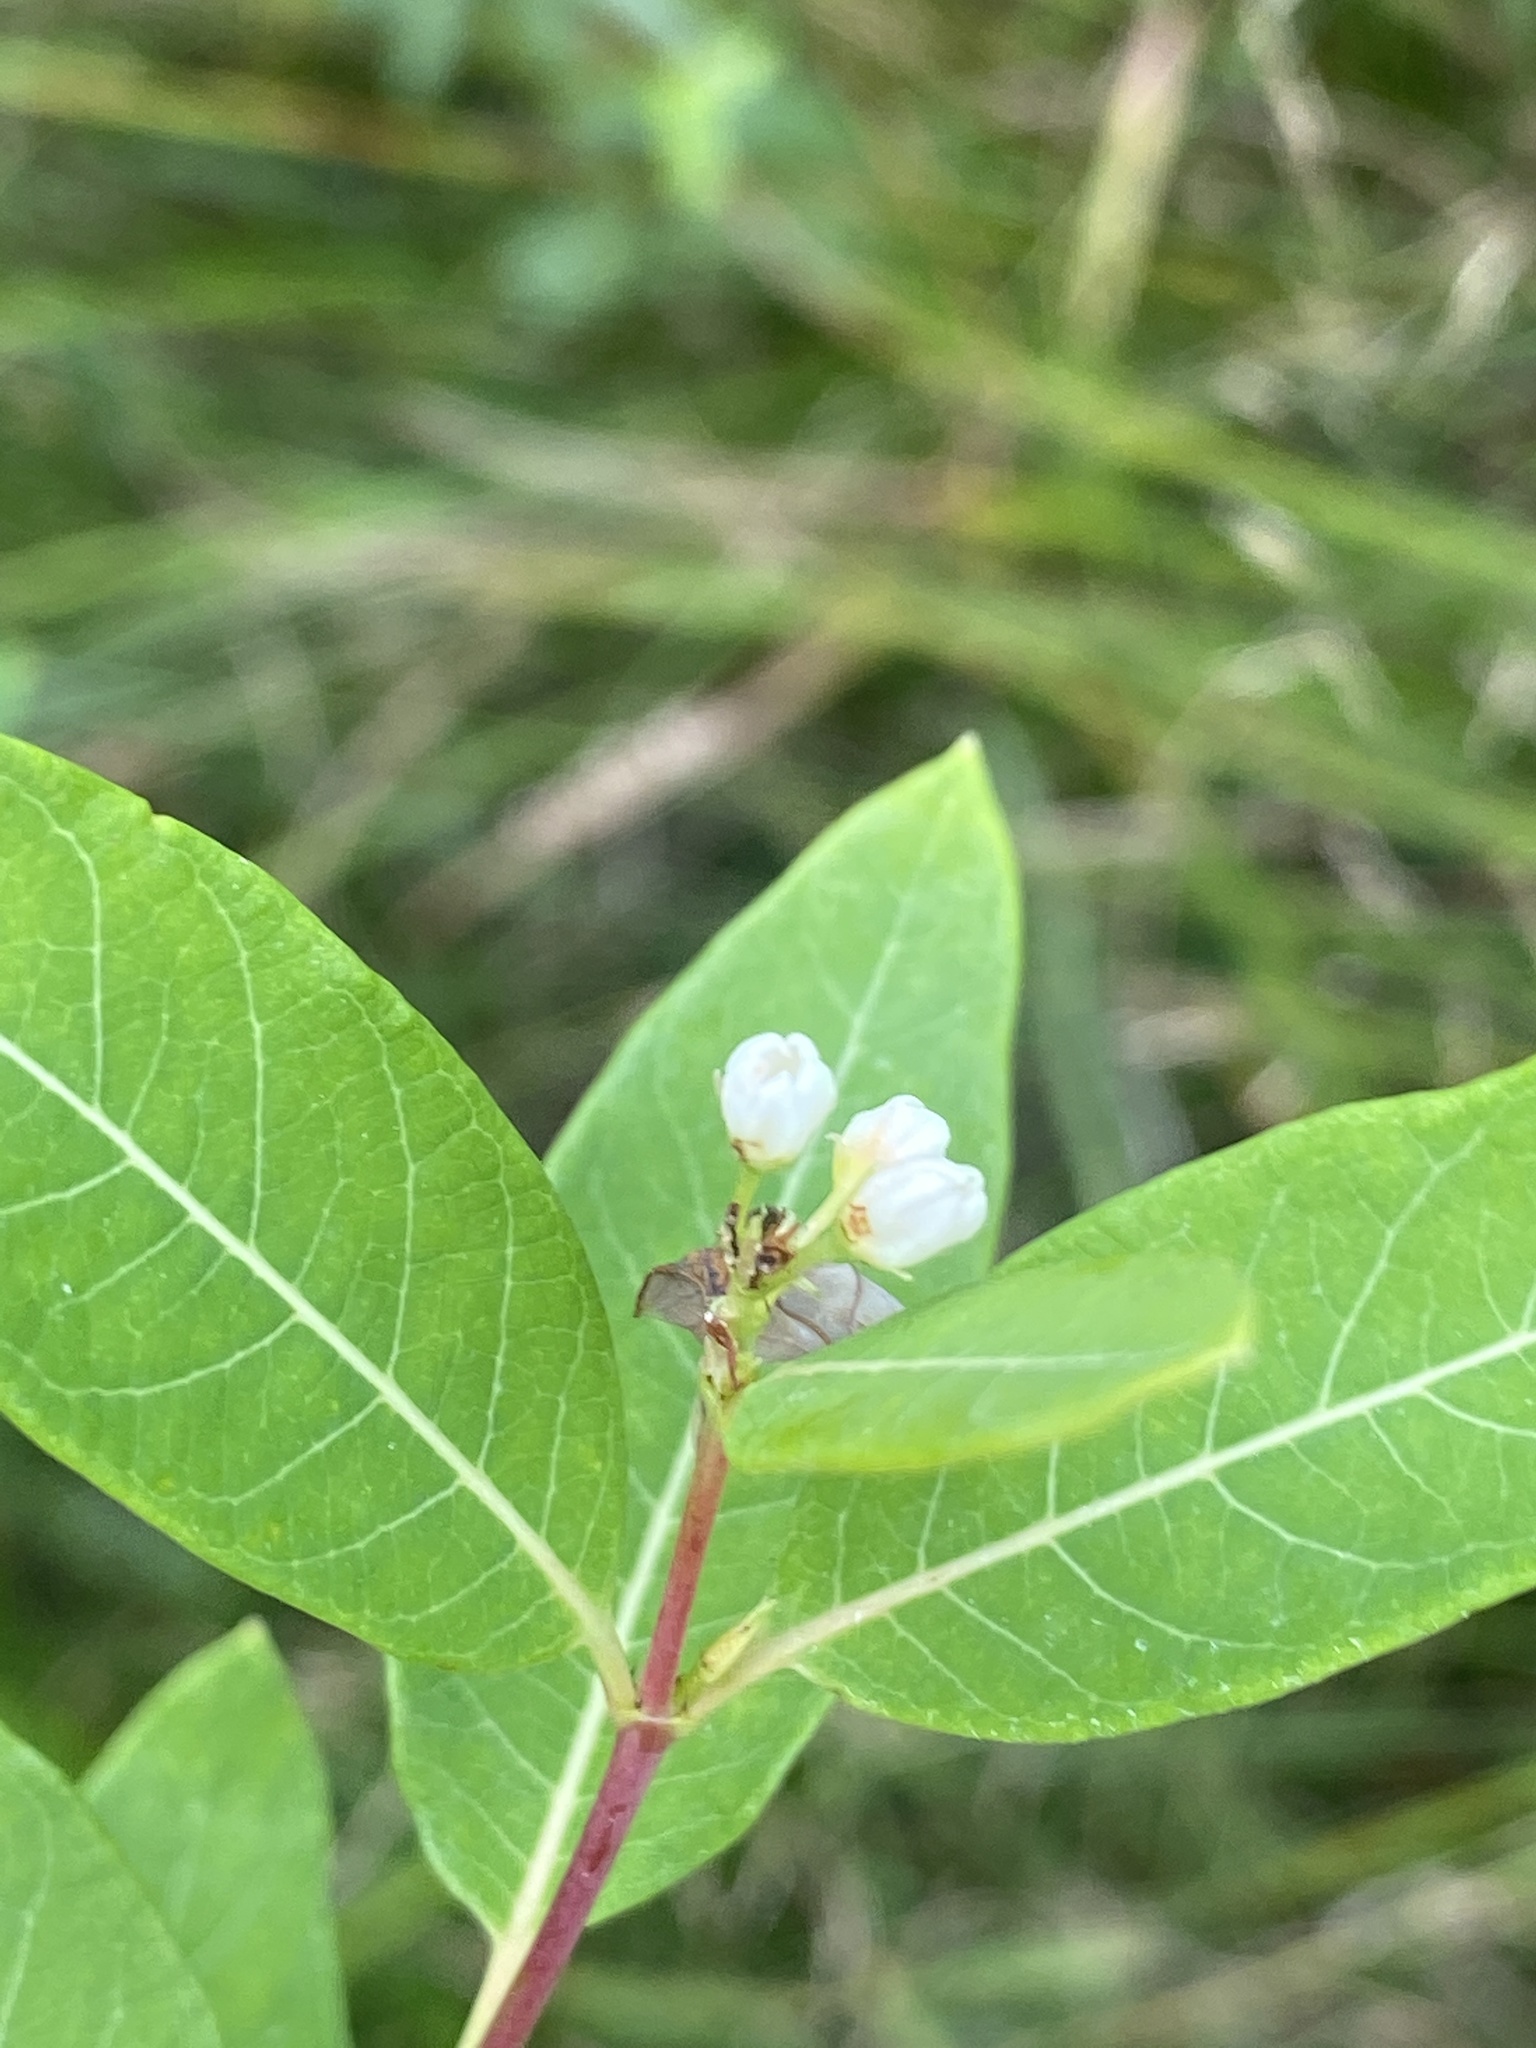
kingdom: Plantae
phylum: Tracheophyta
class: Magnoliopsida
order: Gentianales
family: Apocynaceae
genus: Apocynum
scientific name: Apocynum cannabinum
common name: Hemp dogbane
